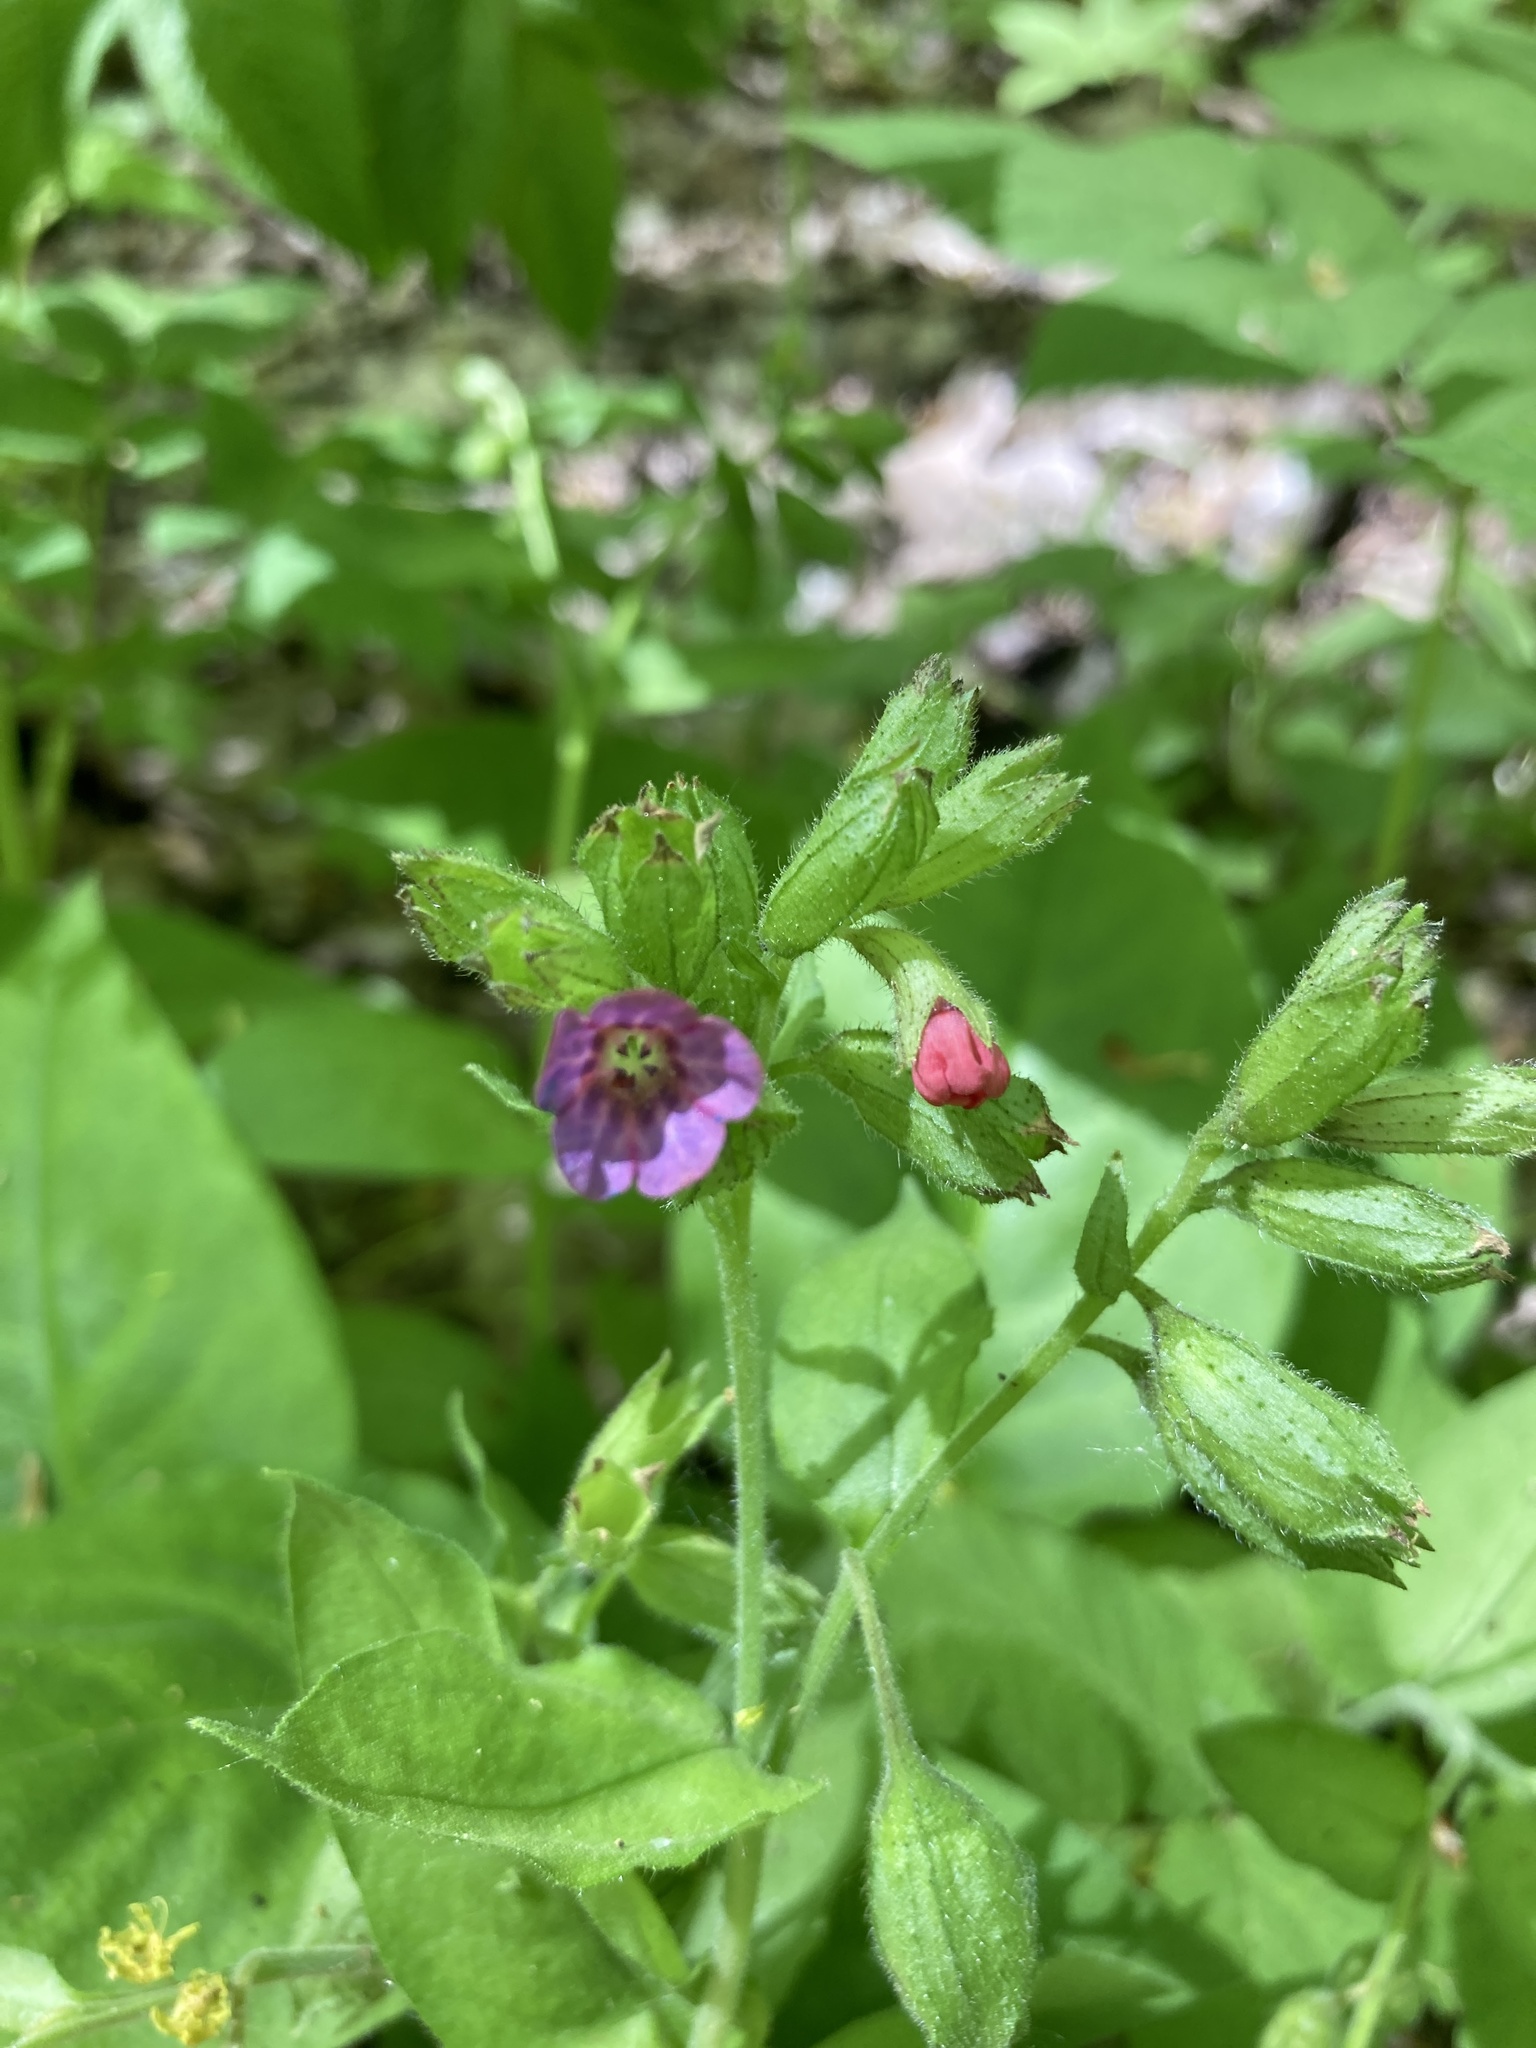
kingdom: Plantae
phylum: Tracheophyta
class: Magnoliopsida
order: Boraginales
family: Boraginaceae
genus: Pulmonaria
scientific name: Pulmonaria obscura
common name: Suffolk lungwort
